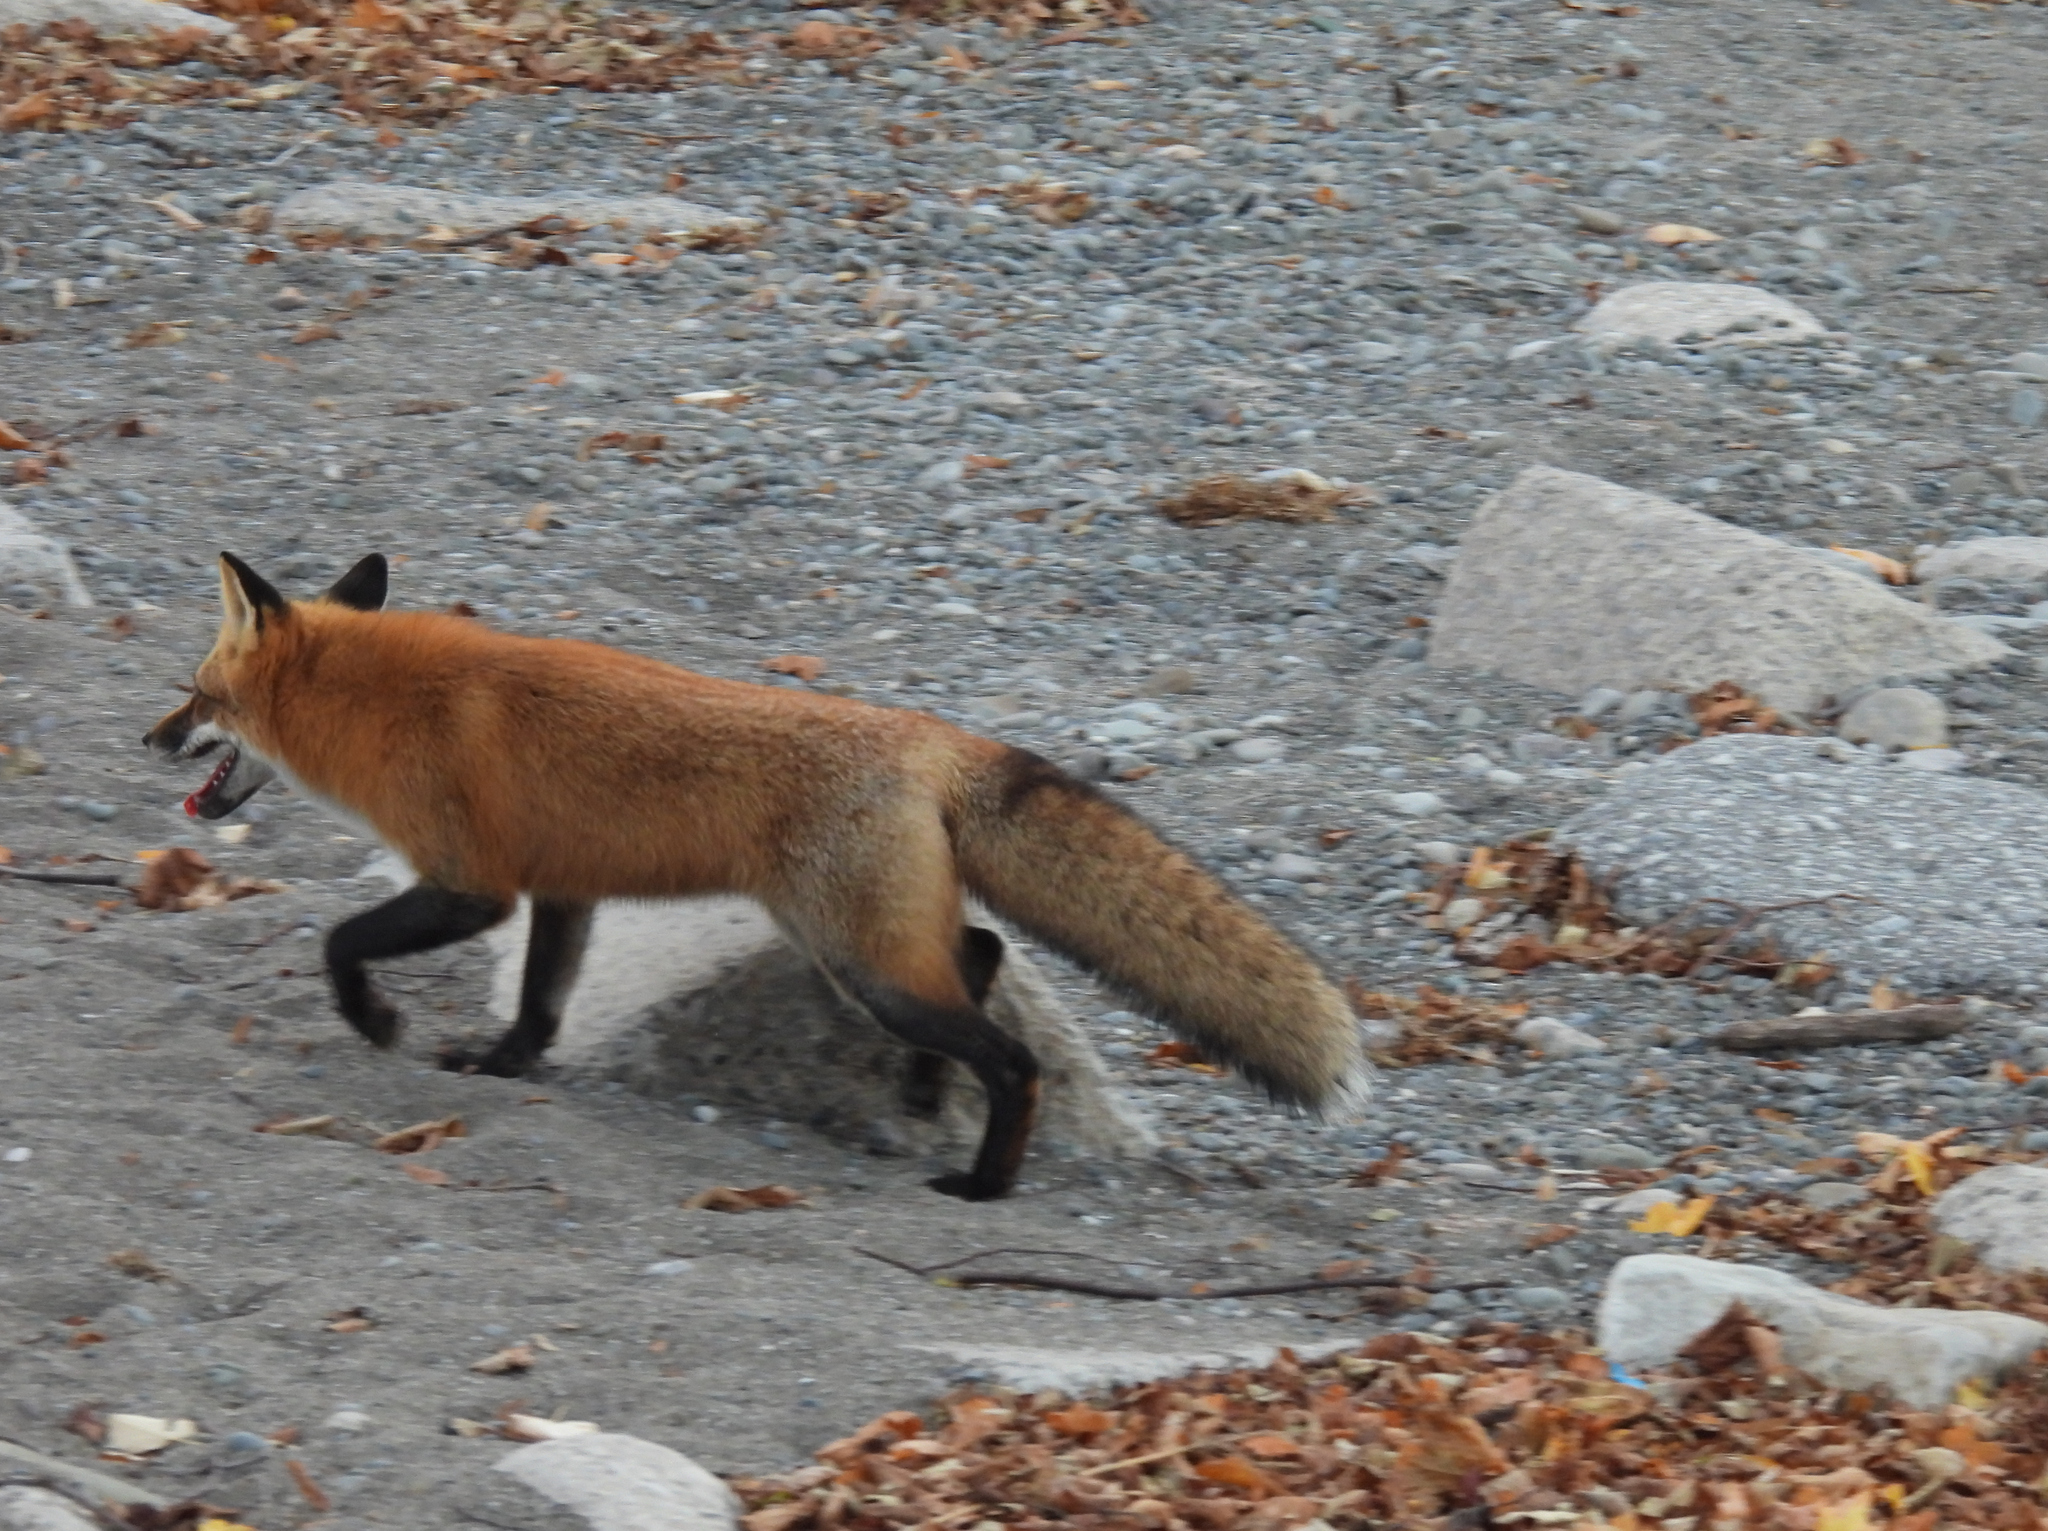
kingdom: Animalia
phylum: Chordata
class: Mammalia
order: Carnivora
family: Canidae
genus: Vulpes
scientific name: Vulpes vulpes
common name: Red fox
